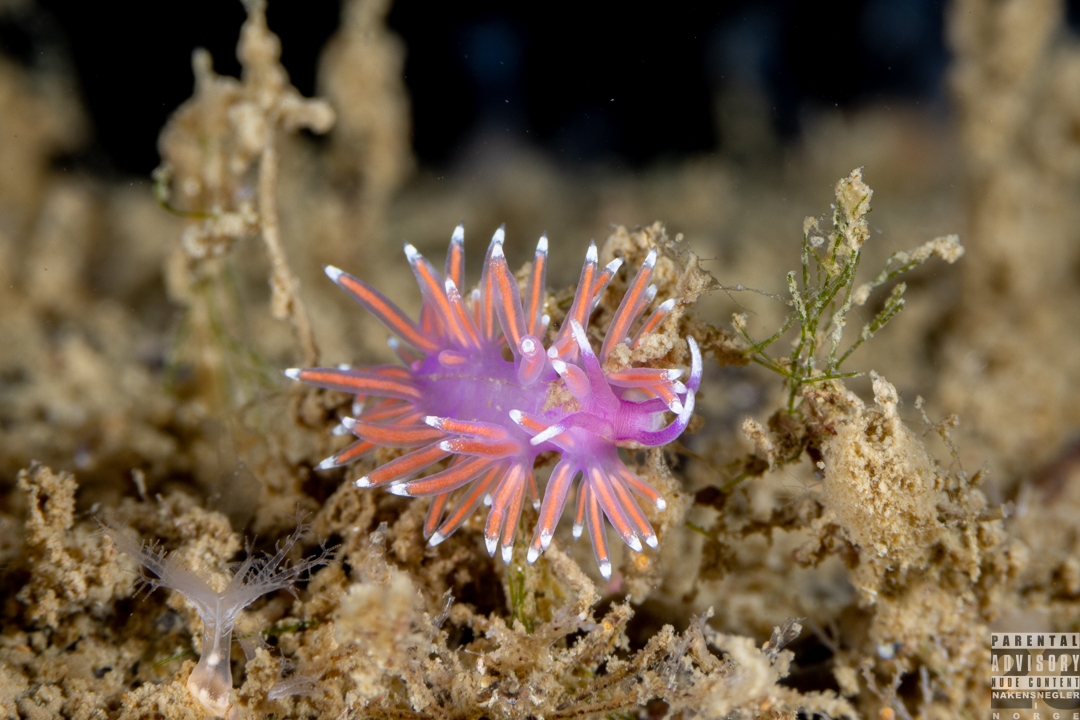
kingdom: Animalia
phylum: Mollusca
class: Gastropoda
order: Nudibranchia
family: Flabellinidae
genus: Edmundsella
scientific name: Edmundsella pedata
